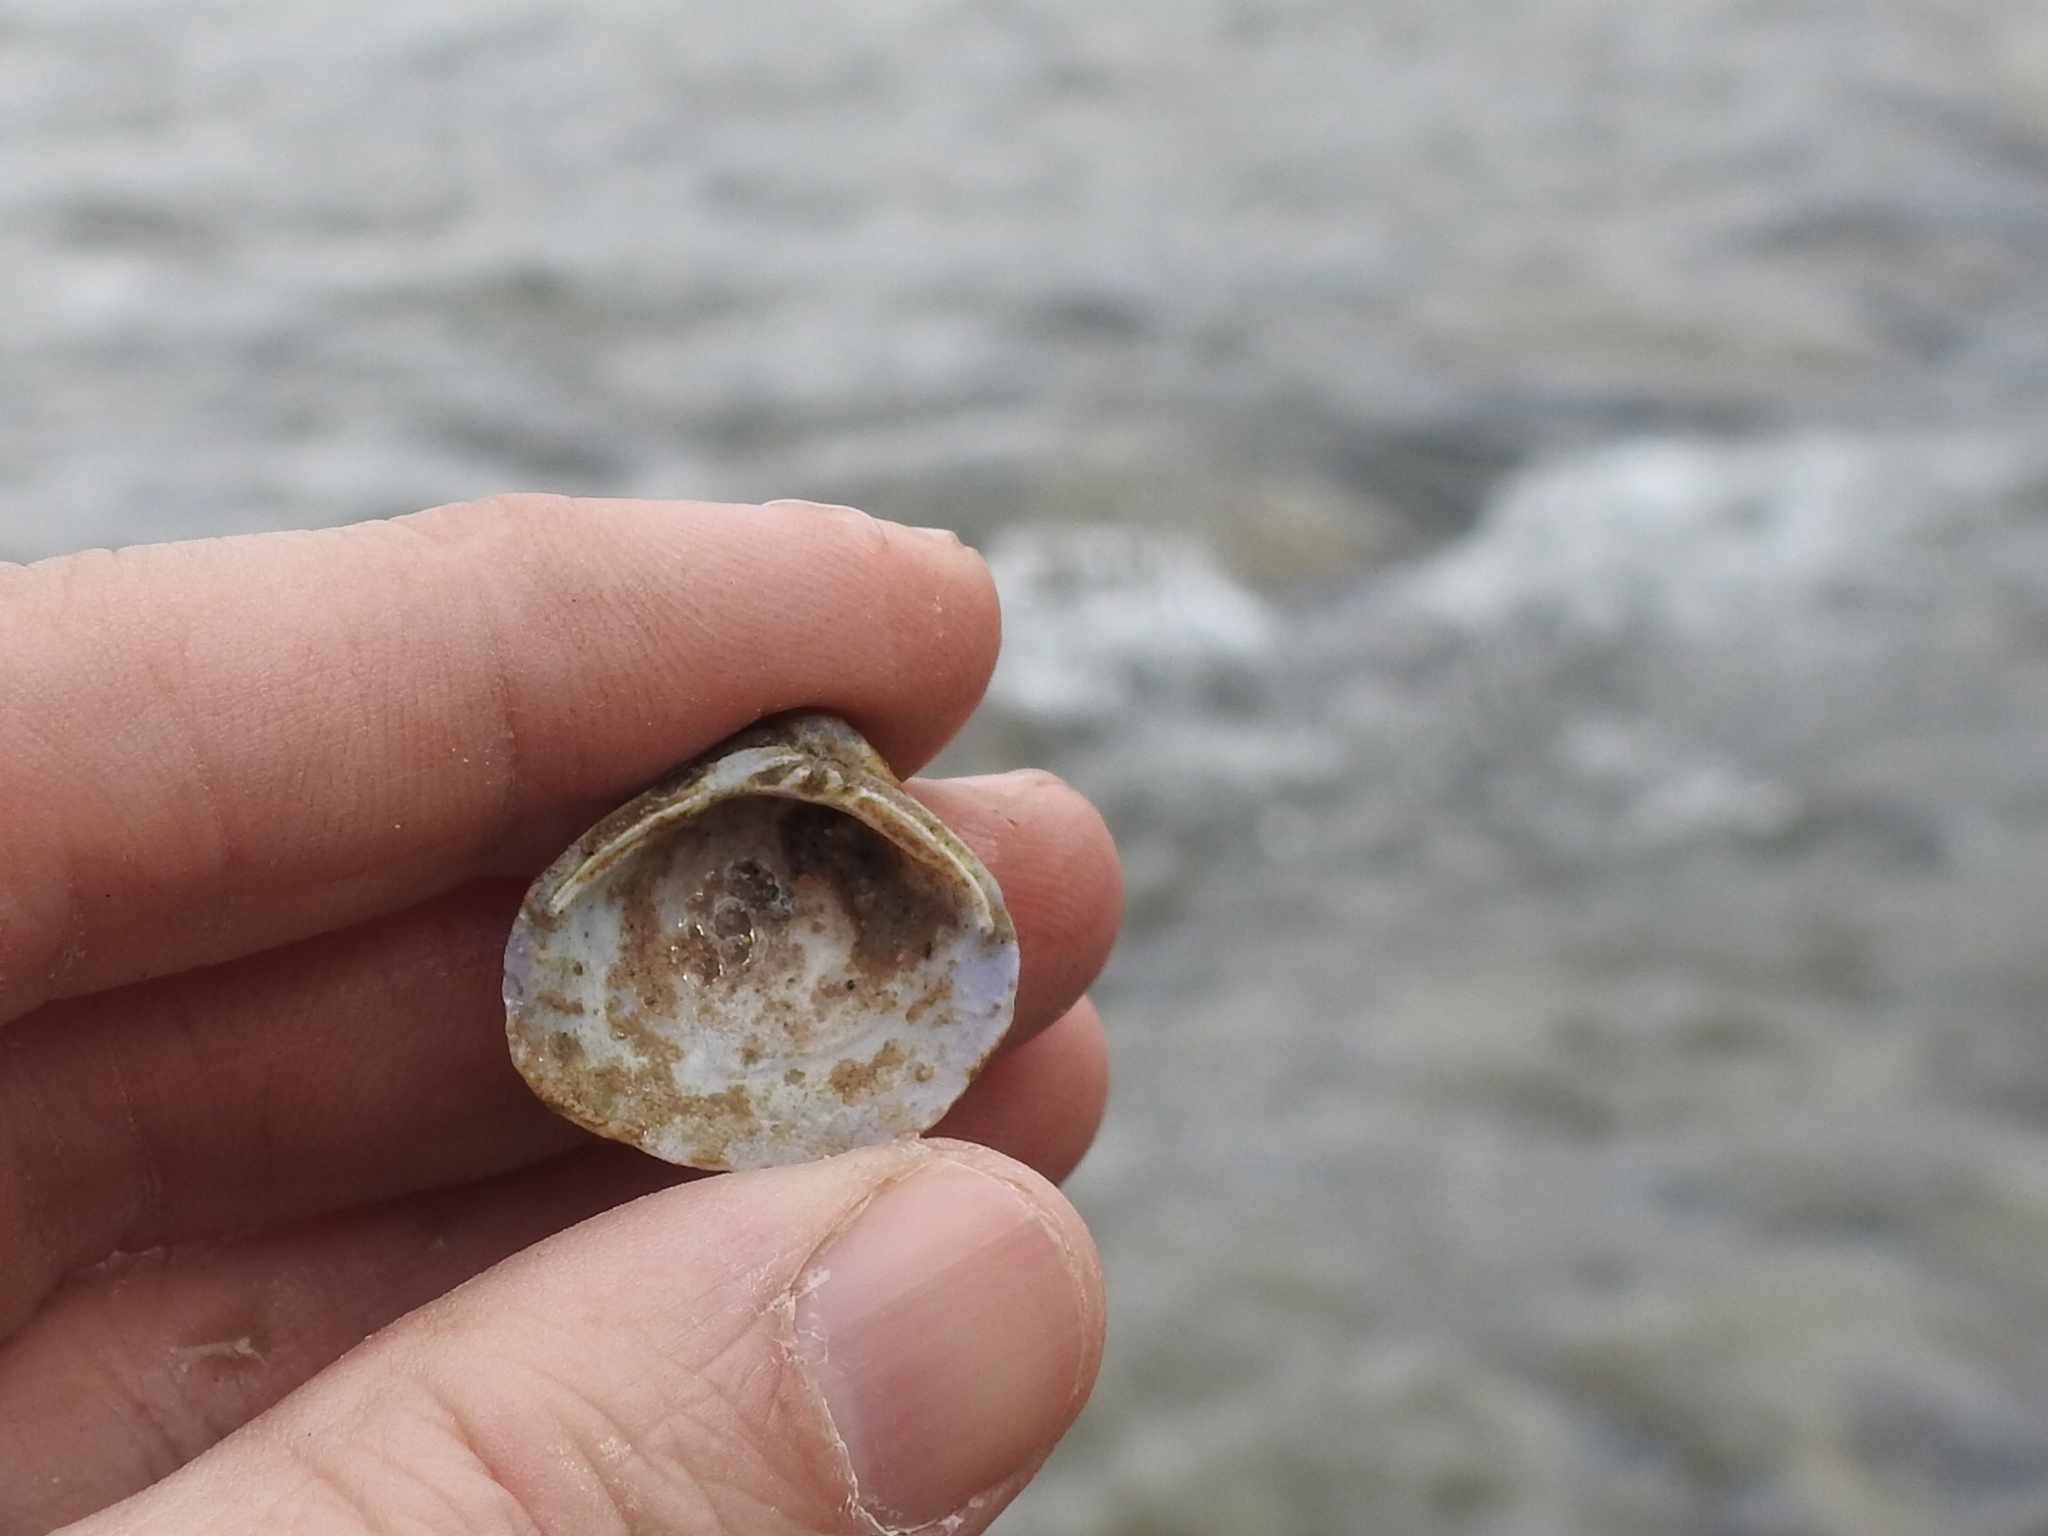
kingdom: Animalia
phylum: Mollusca
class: Bivalvia
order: Venerida
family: Cyrenidae
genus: Corbicula
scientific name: Corbicula fluminea
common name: Asian clam
